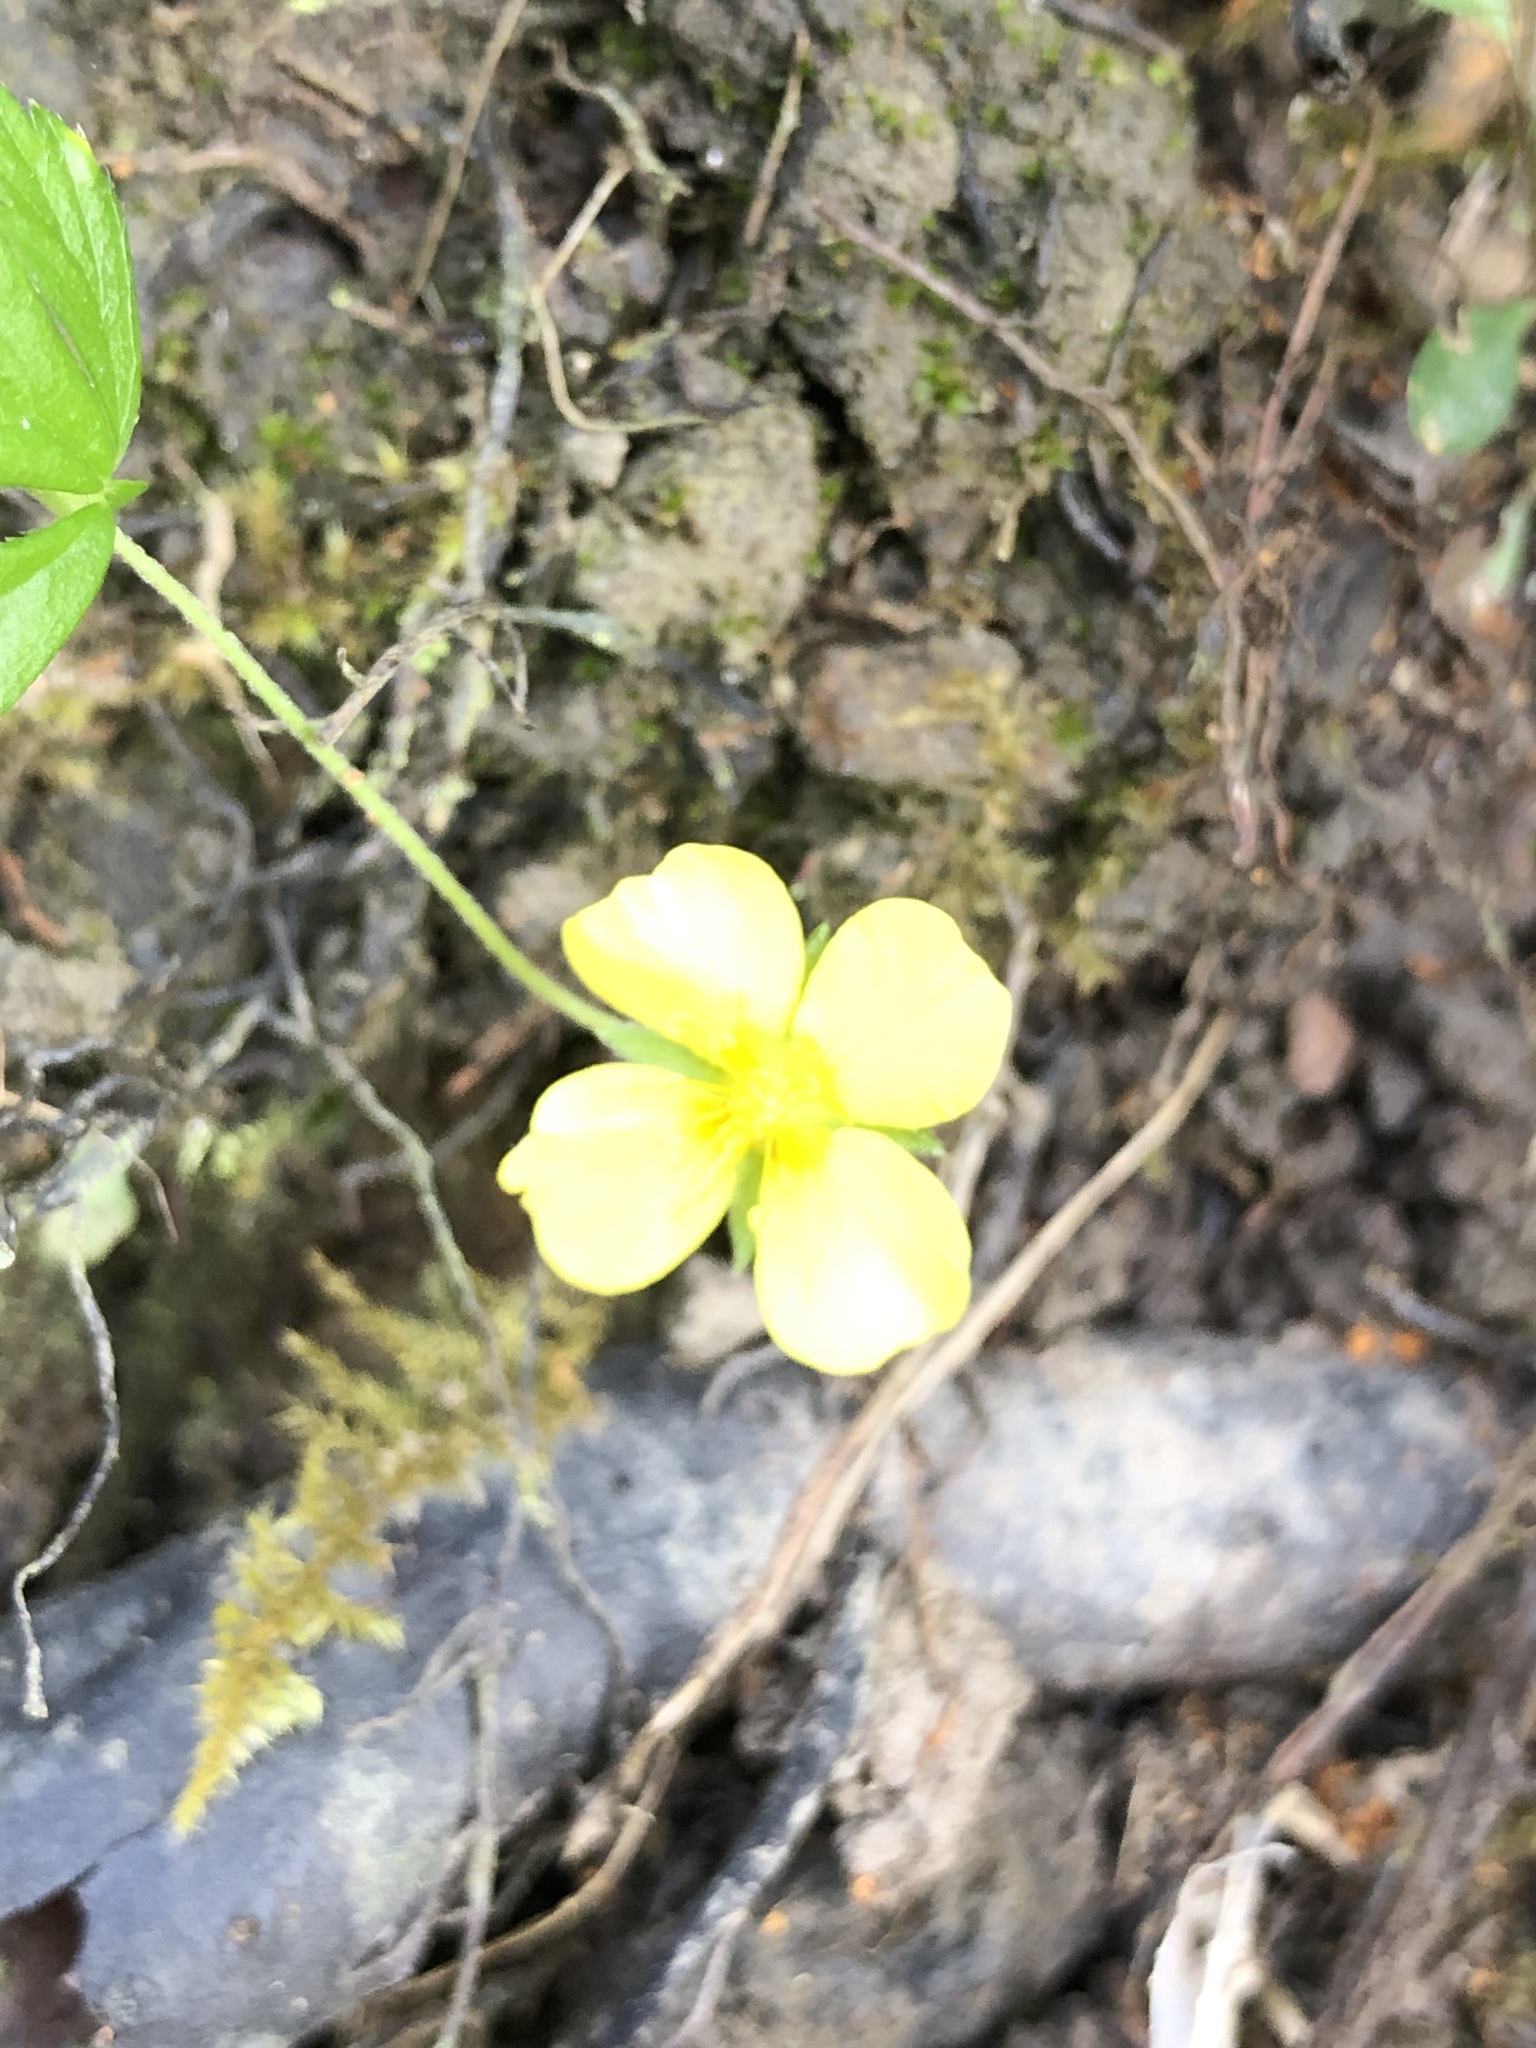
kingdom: Plantae
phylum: Tracheophyta
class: Magnoliopsida
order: Rosales
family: Rosaceae
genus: Potentilla
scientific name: Potentilla erecta
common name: Tormentil
